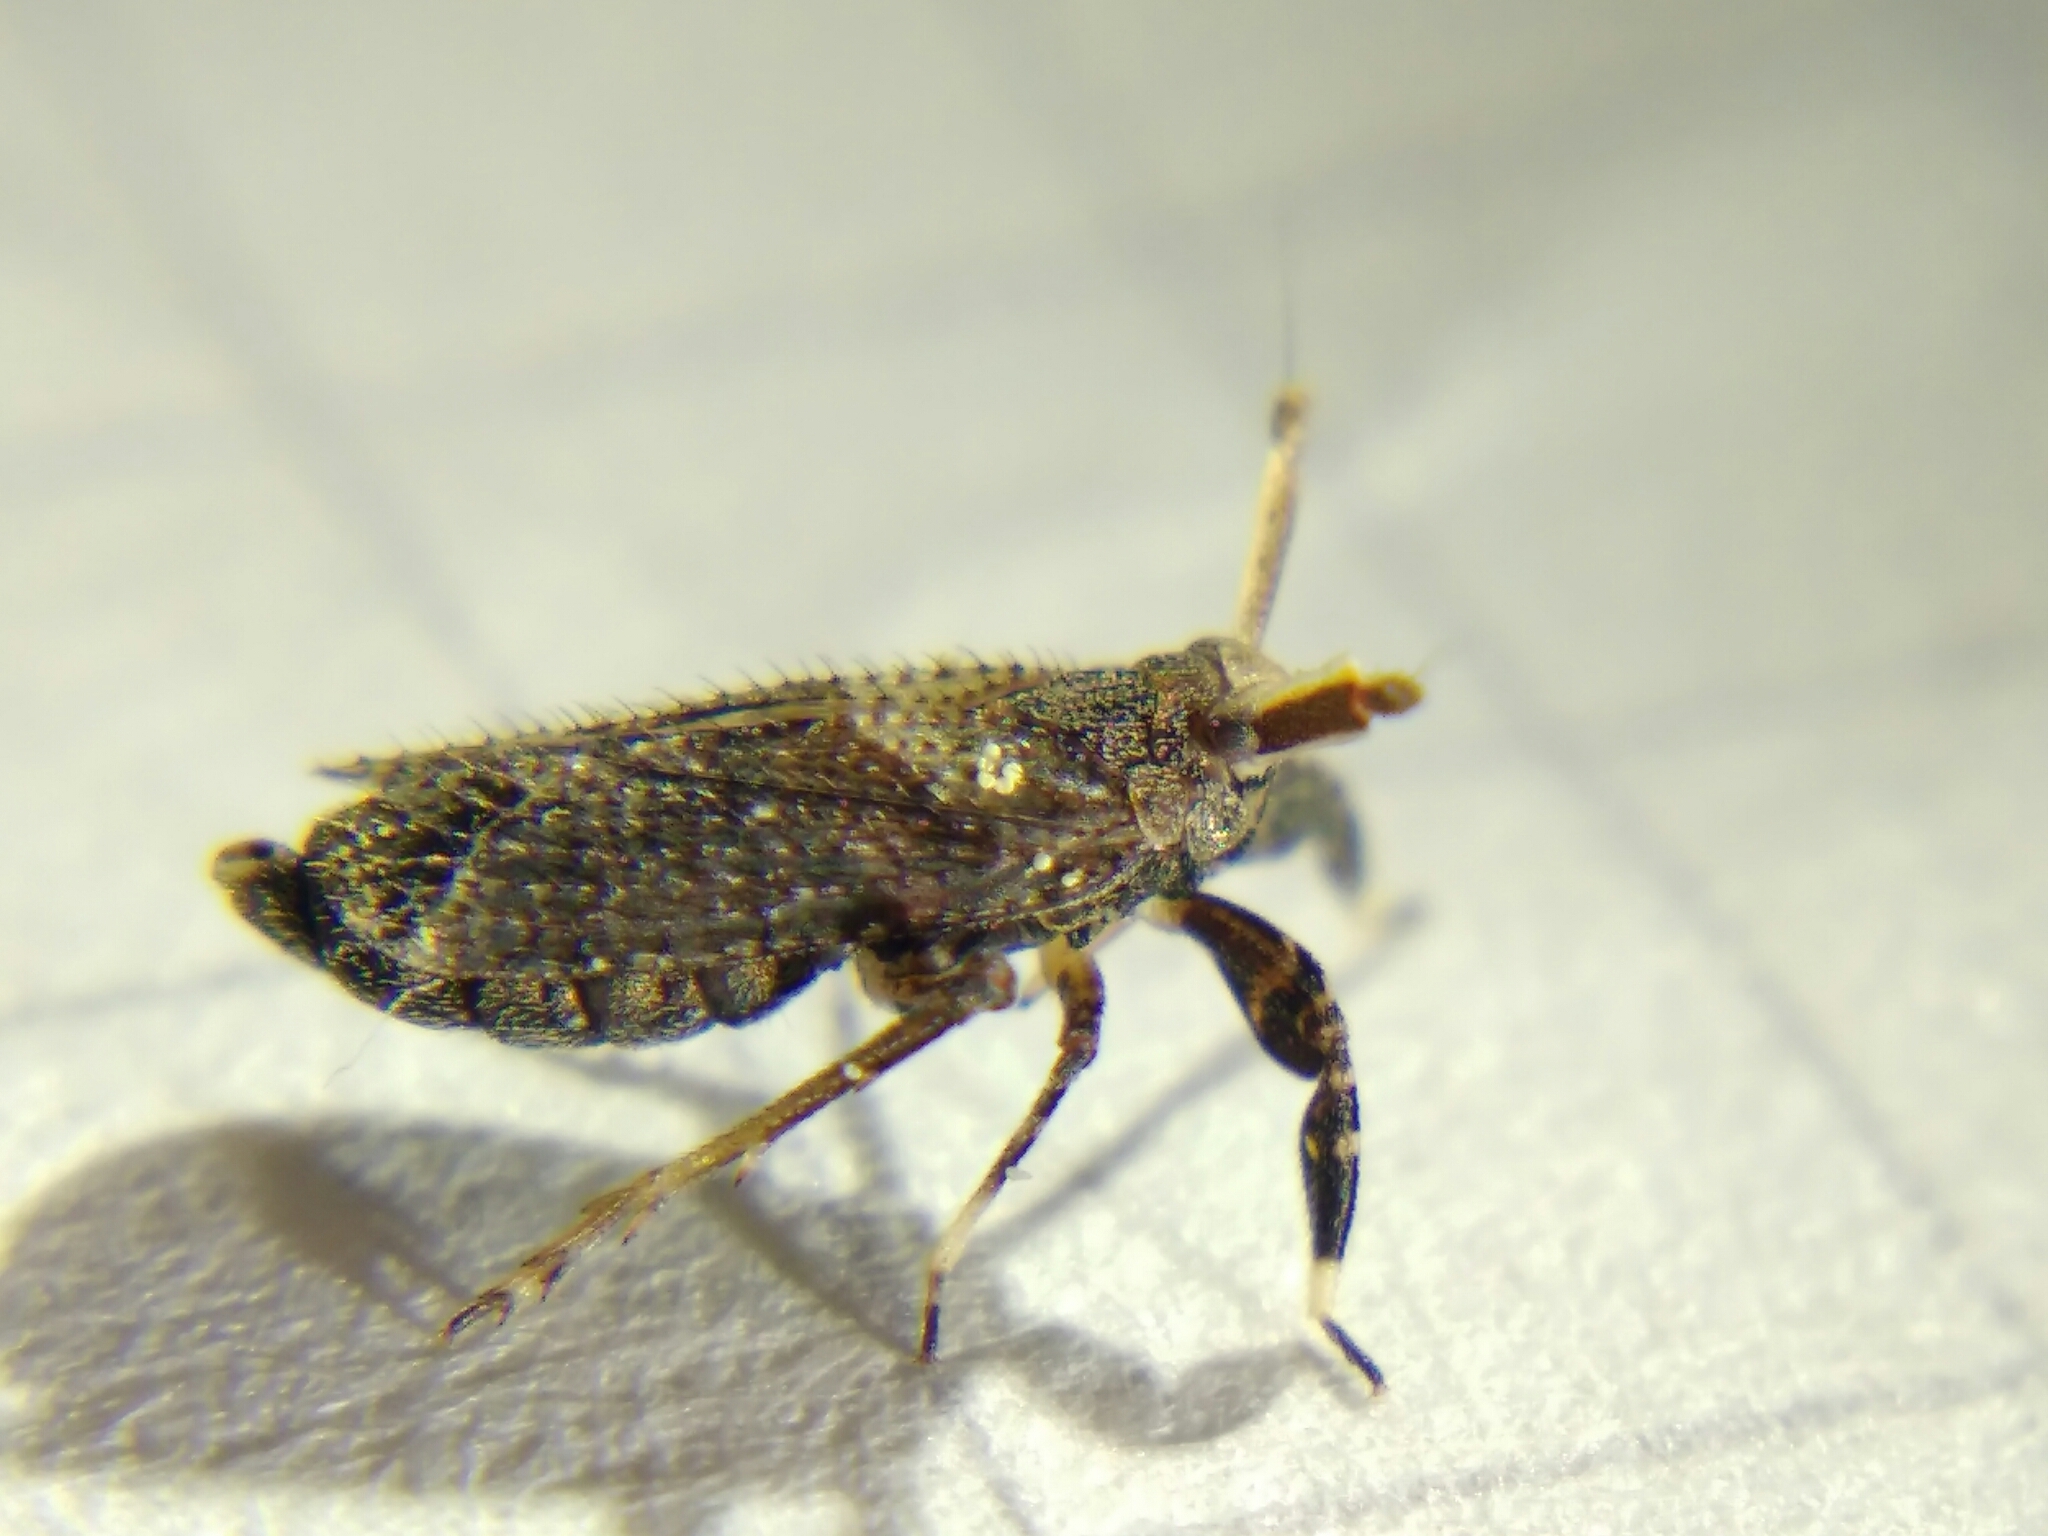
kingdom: Animalia
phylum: Arthropoda
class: Insecta
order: Hemiptera
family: Delphacidae
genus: Asiraca
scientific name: Asiraca clavicornis
